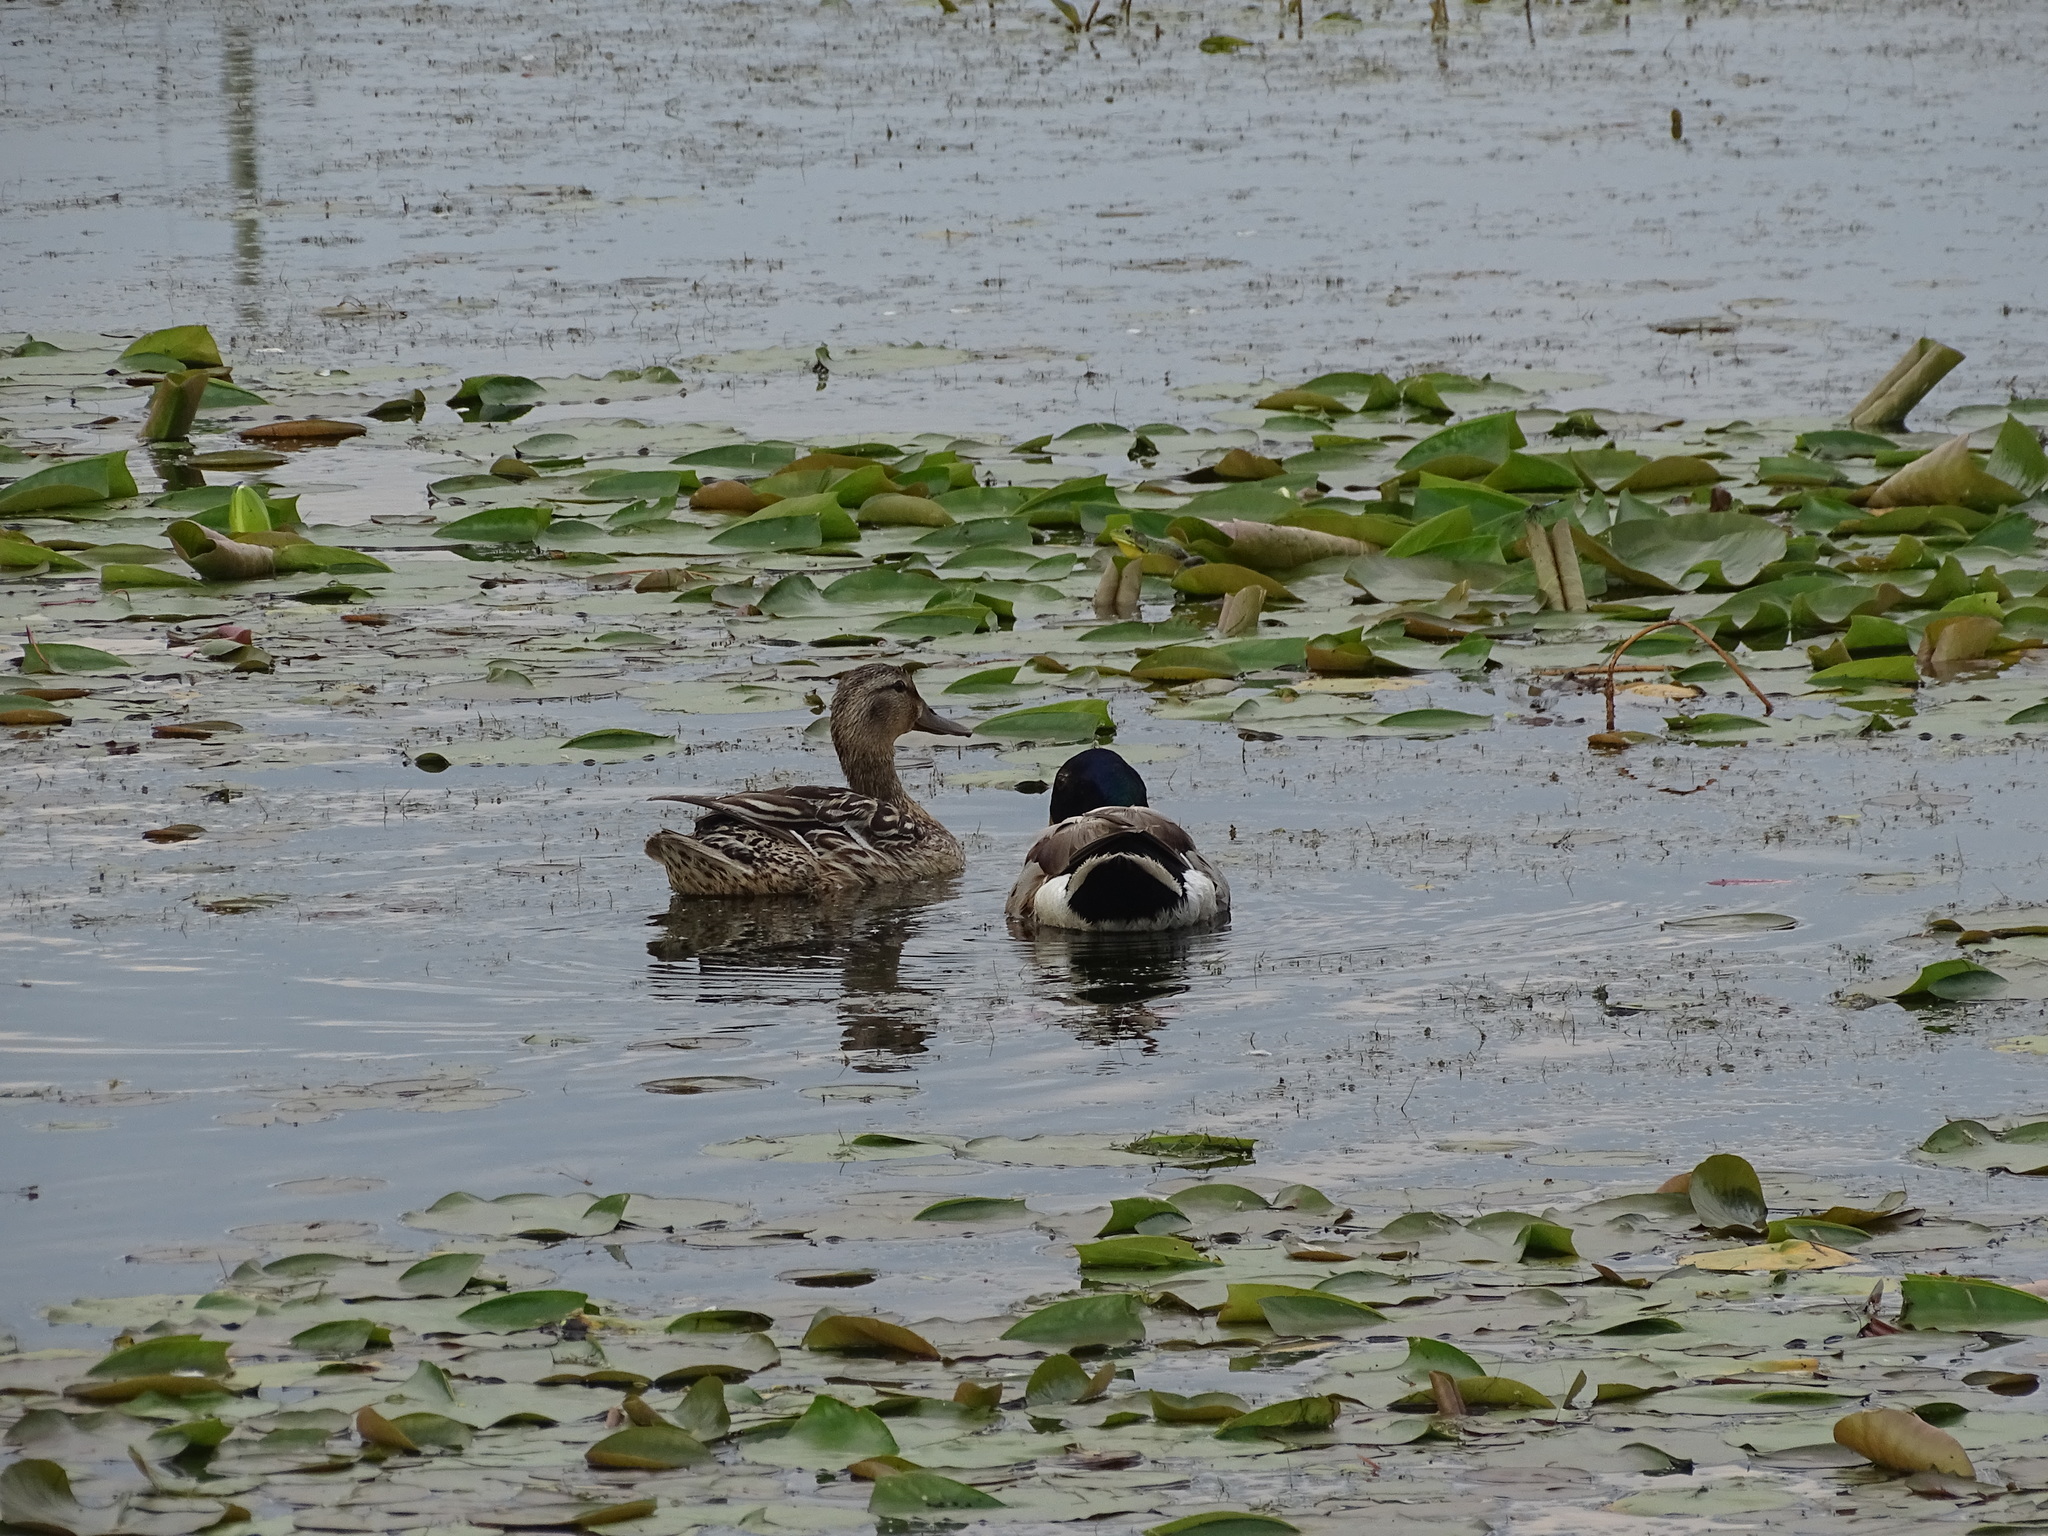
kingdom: Animalia
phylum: Chordata
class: Aves
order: Anseriformes
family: Anatidae
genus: Anas
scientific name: Anas platyrhynchos
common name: Mallard
